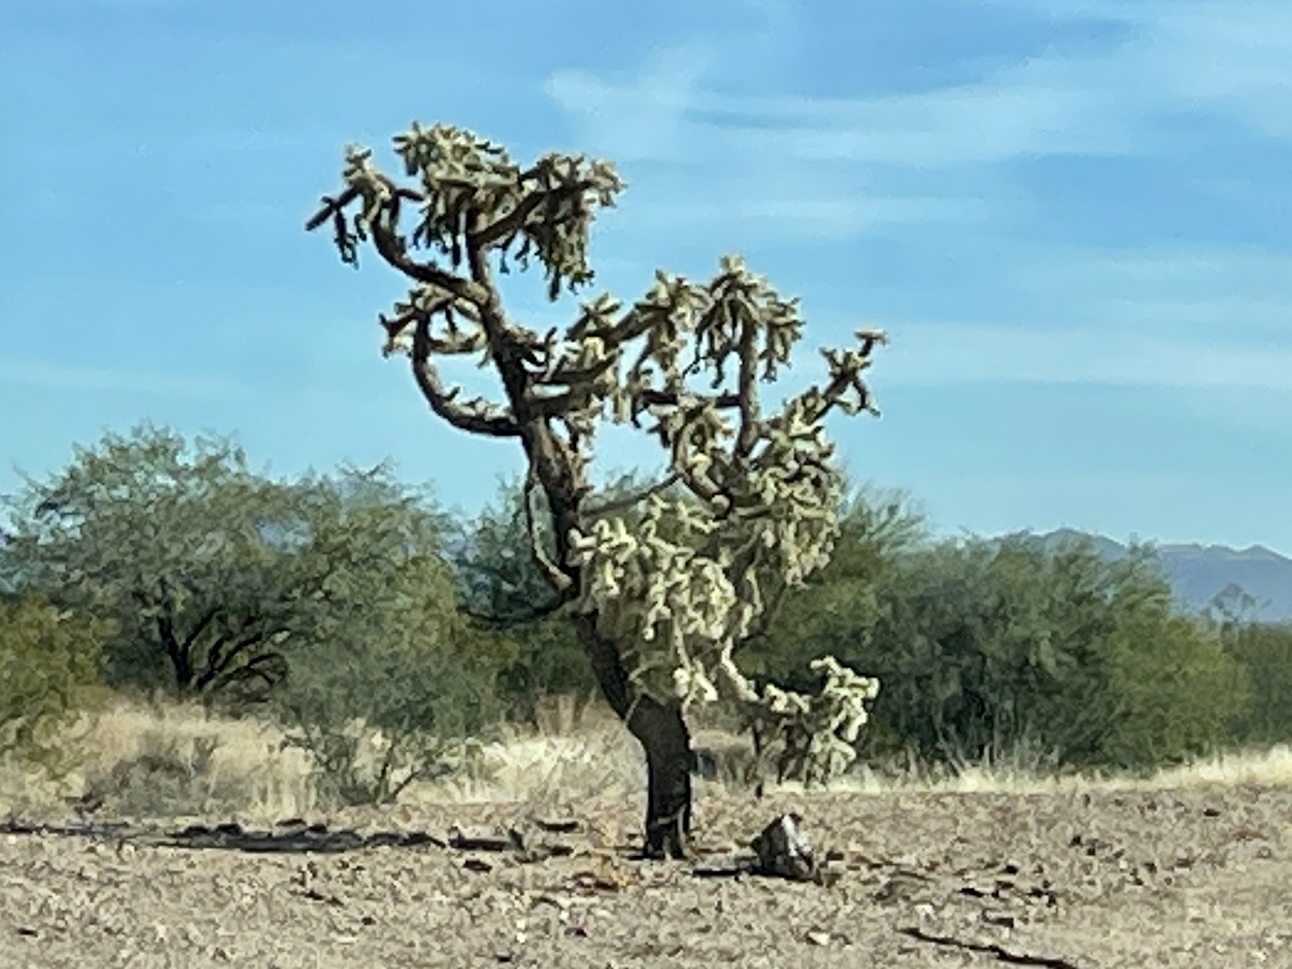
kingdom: Plantae
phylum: Tracheophyta
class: Magnoliopsida
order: Caryophyllales
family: Cactaceae
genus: Cylindropuntia
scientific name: Cylindropuntia fulgida
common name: Jumping cholla
